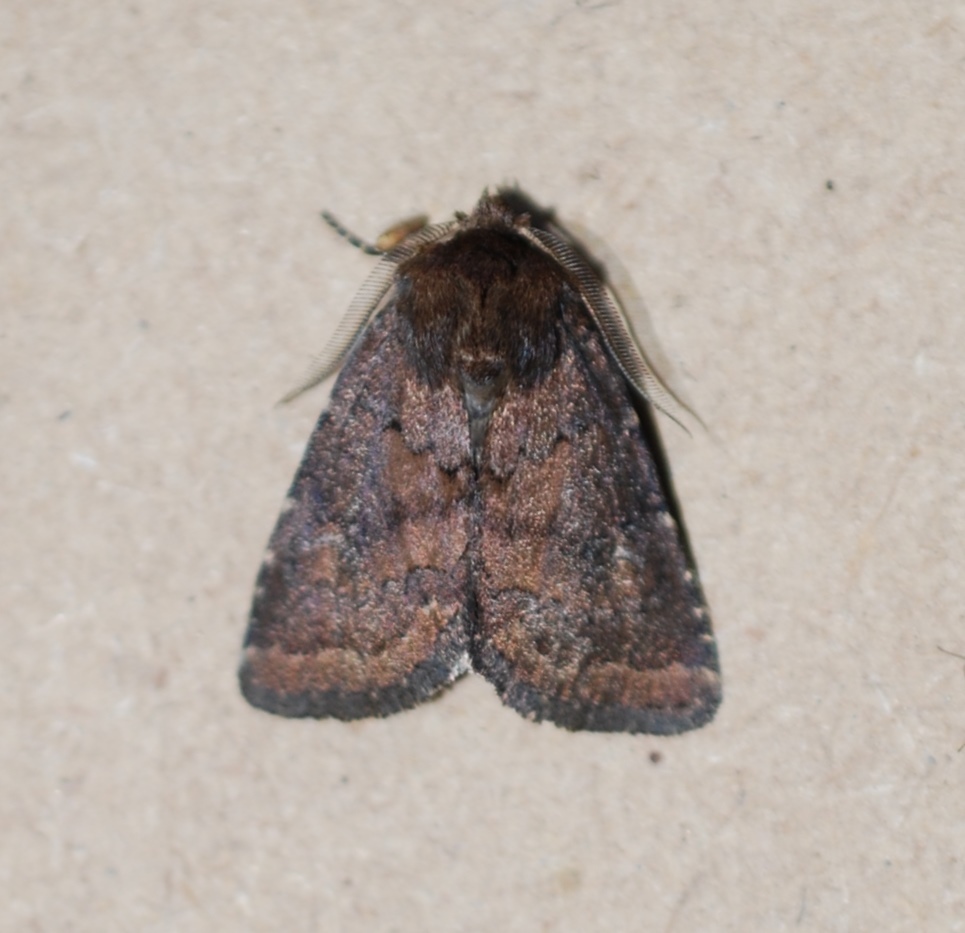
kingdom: Animalia
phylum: Arthropoda
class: Insecta
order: Lepidoptera
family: Noctuidae
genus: Charanyca
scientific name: Charanyca ferruginea
